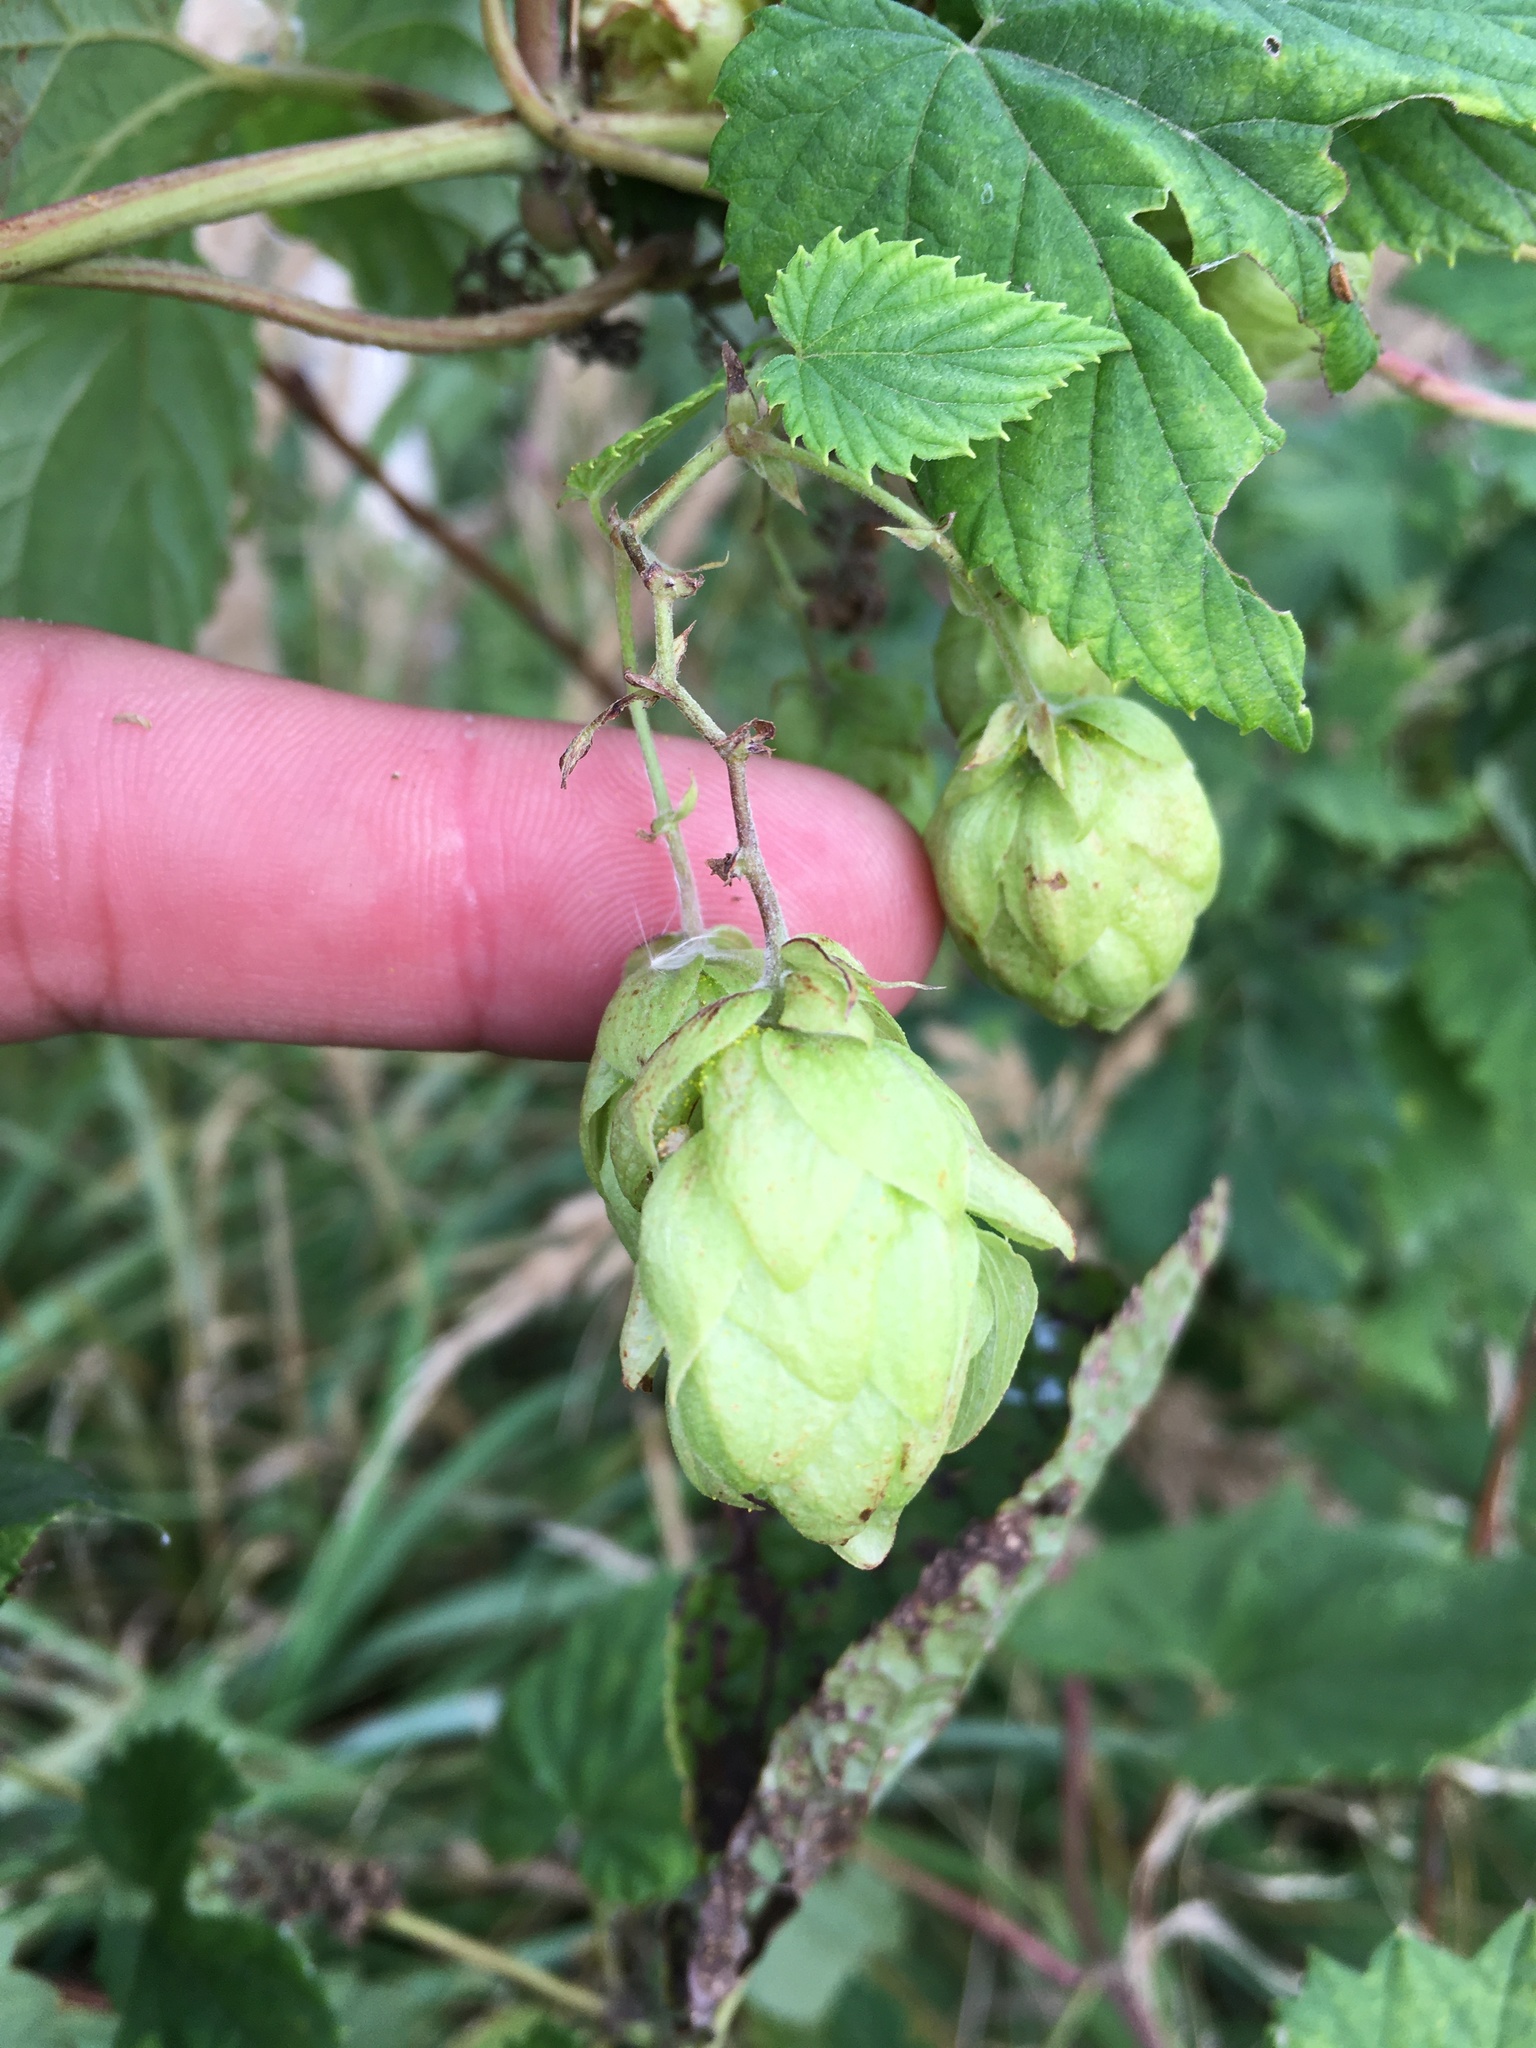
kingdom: Plantae
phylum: Tracheophyta
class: Magnoliopsida
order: Rosales
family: Cannabaceae
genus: Humulus
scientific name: Humulus lupulus
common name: Hop
